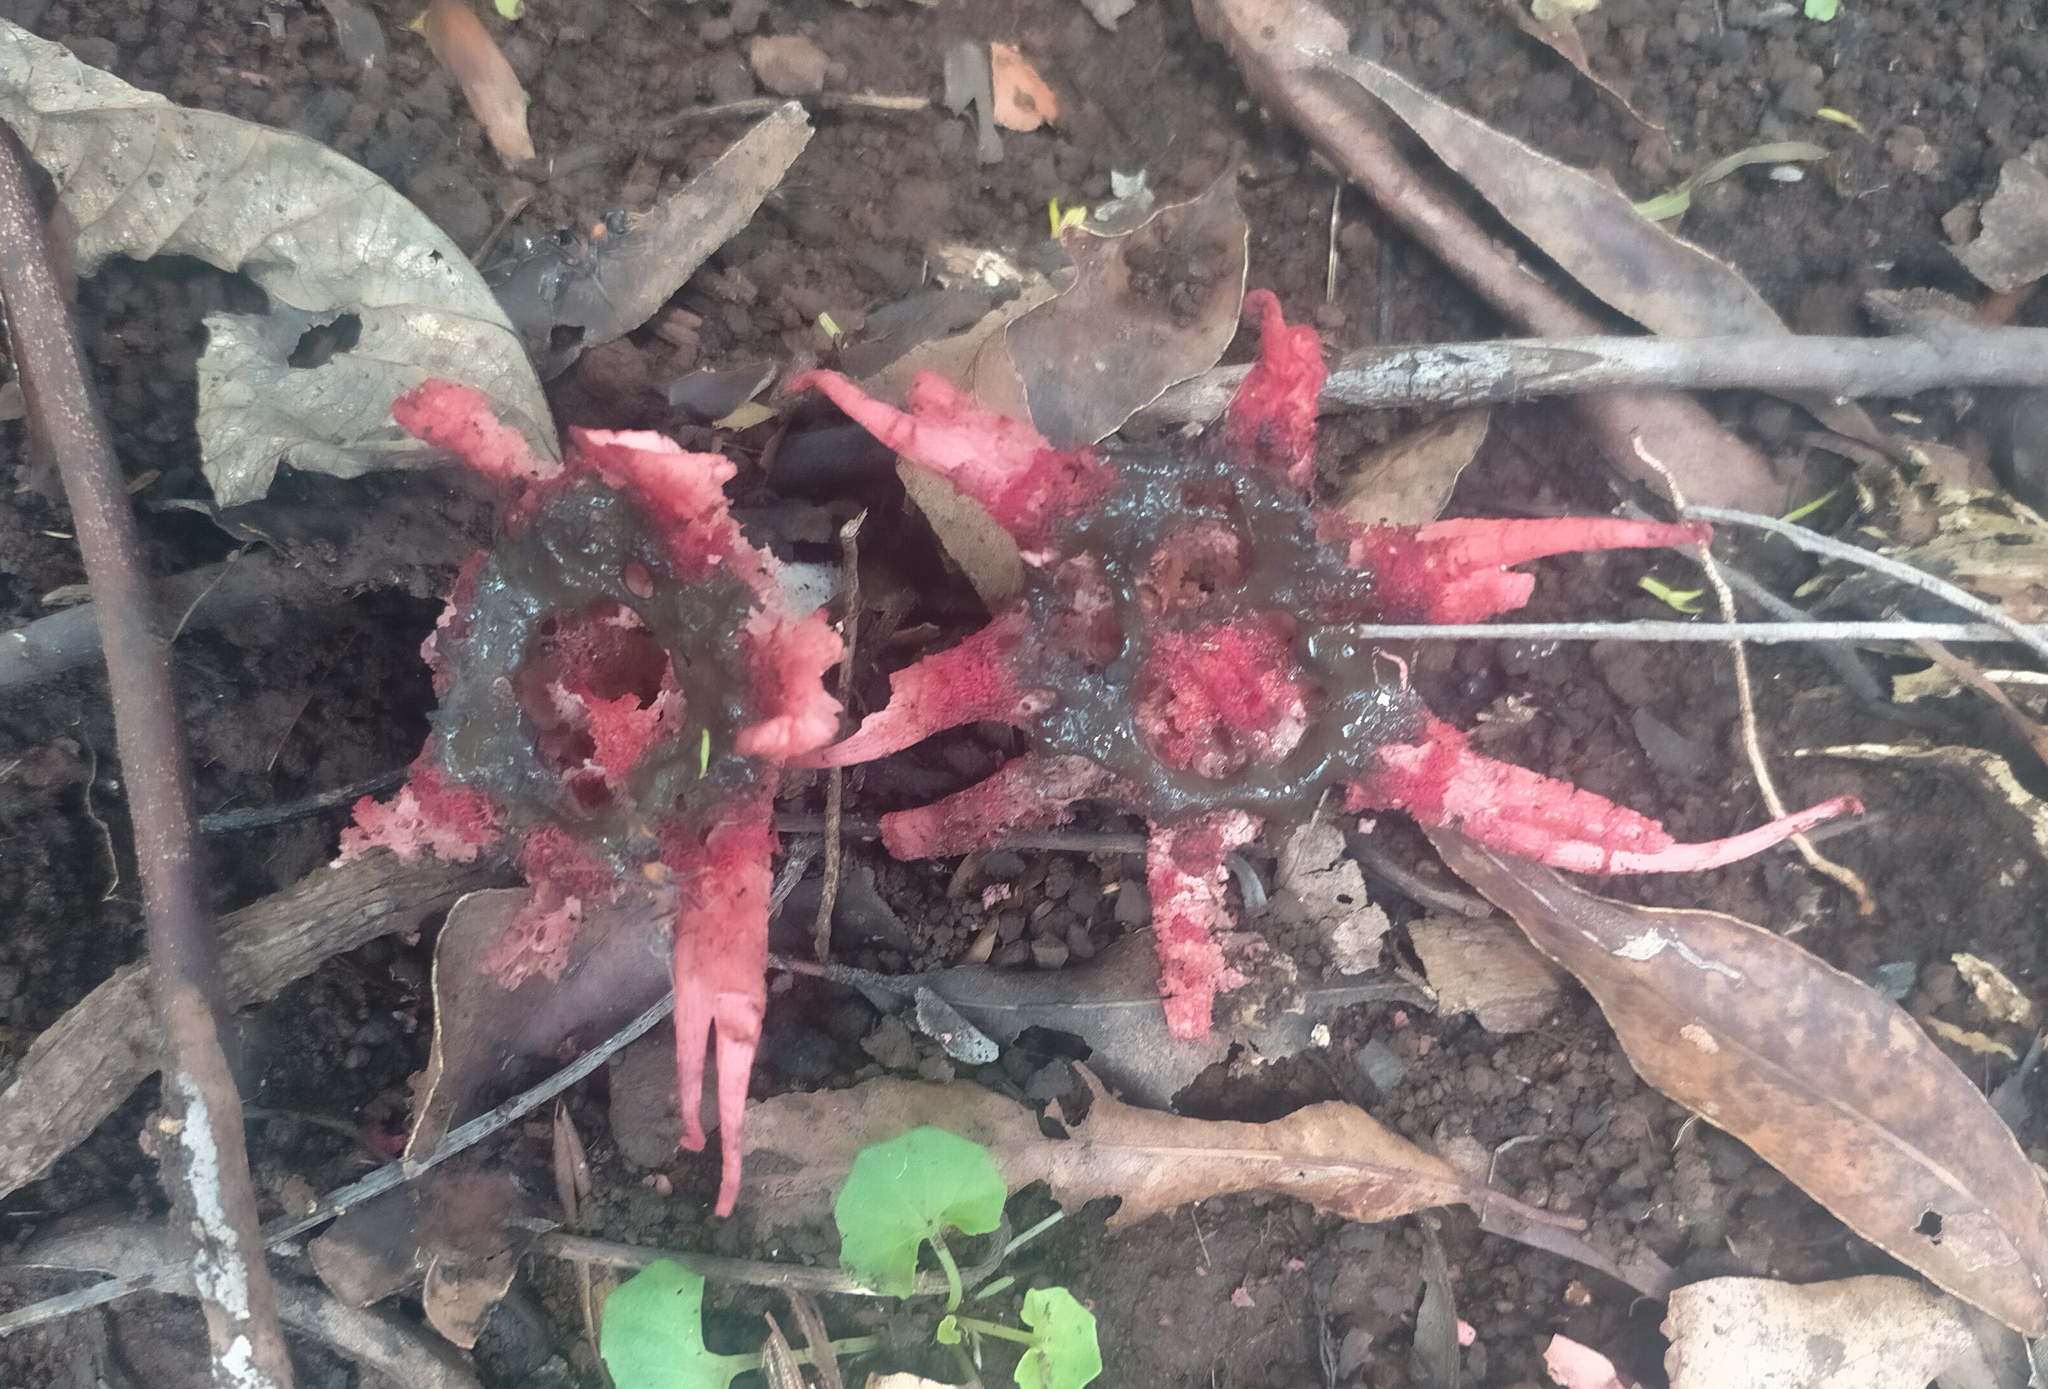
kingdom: Fungi
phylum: Basidiomycota
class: Agaricomycetes
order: Phallales
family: Phallaceae
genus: Aseroe
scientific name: Aseroe rubra
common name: Starfish fungus
